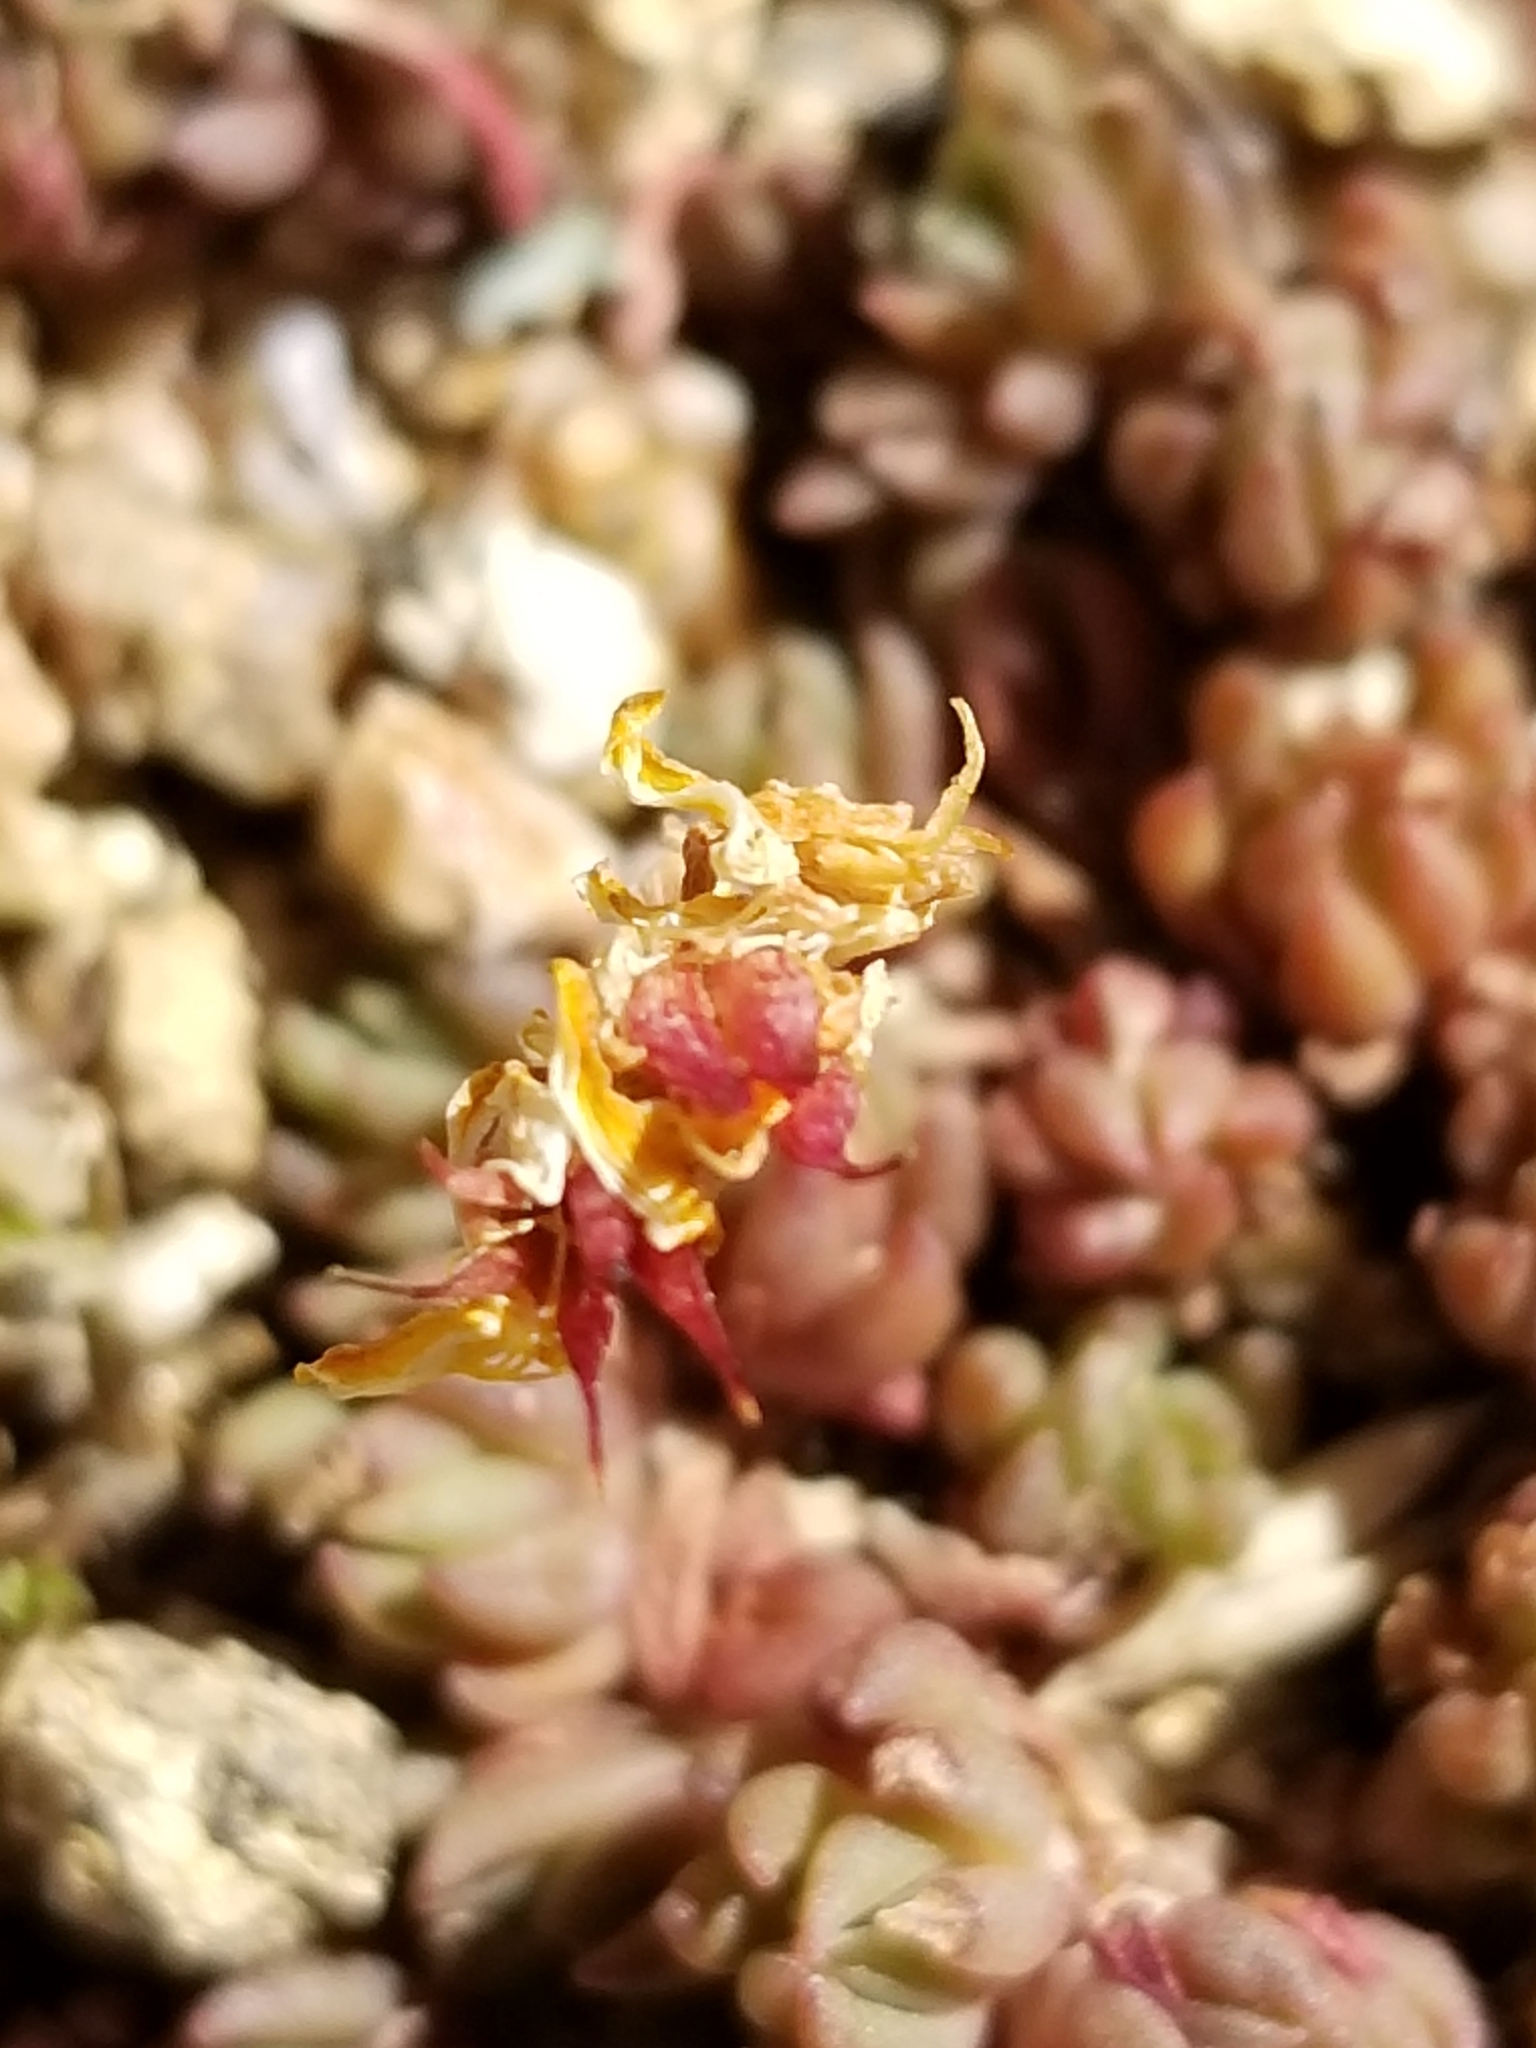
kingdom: Plantae
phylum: Tracheophyta
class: Magnoliopsida
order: Saxifragales
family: Crassulaceae
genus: Sedum
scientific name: Sedum lanceolatum
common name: Common stonecrop
